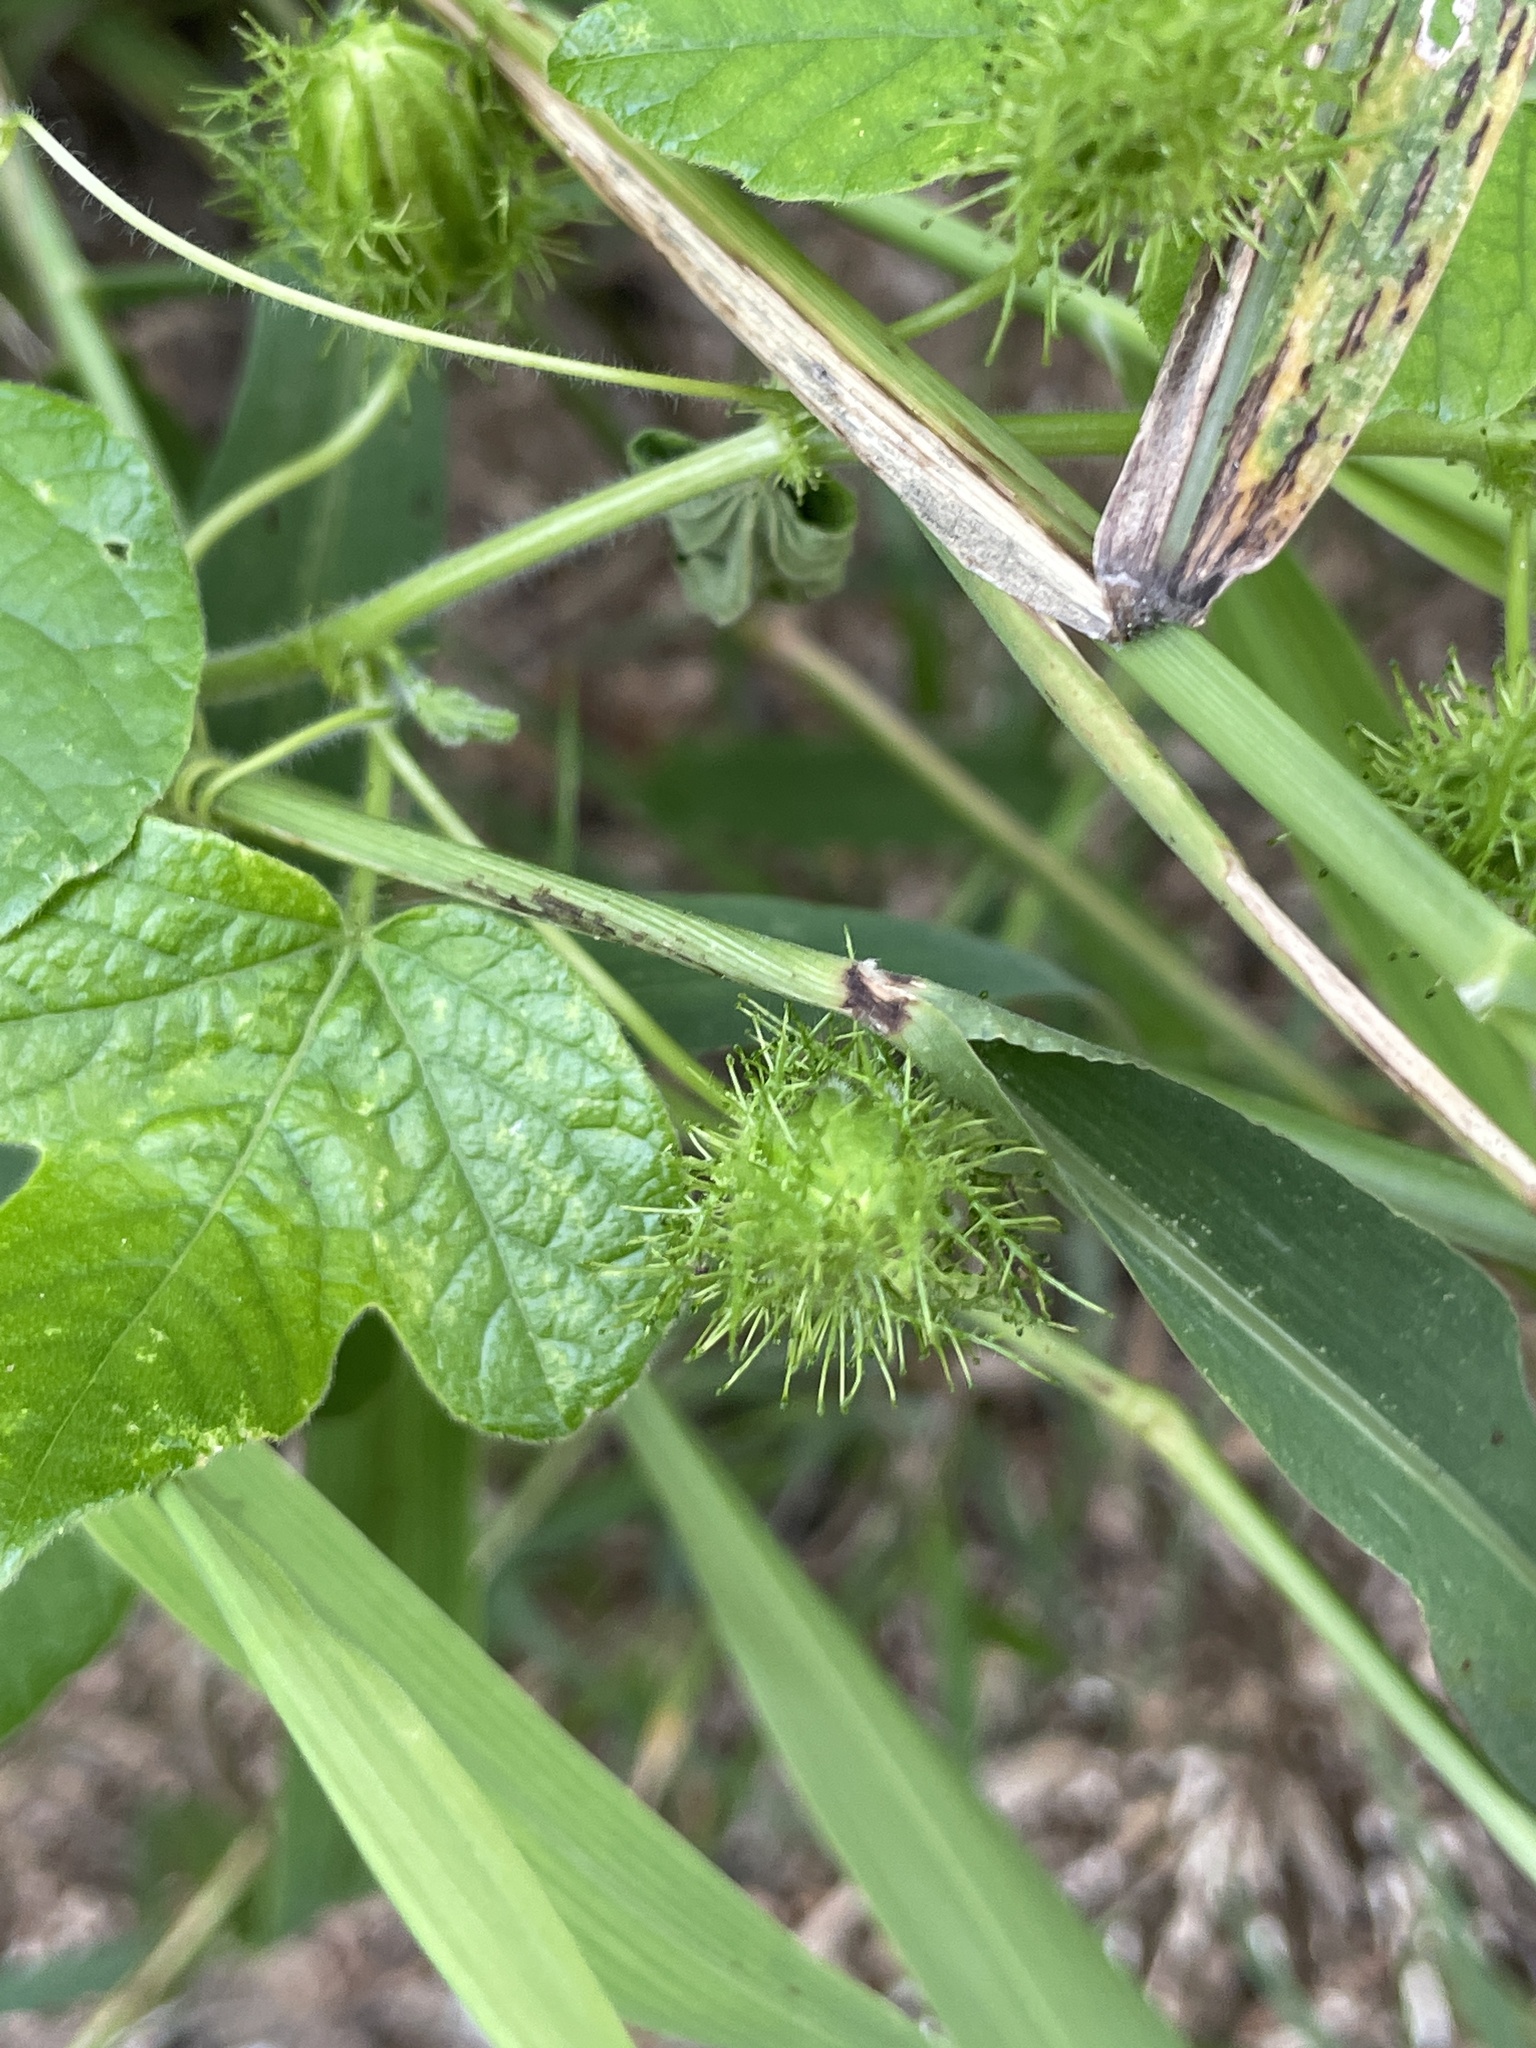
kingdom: Plantae
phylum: Tracheophyta
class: Magnoliopsida
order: Malpighiales
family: Passifloraceae
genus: Passiflora
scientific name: Passiflora
